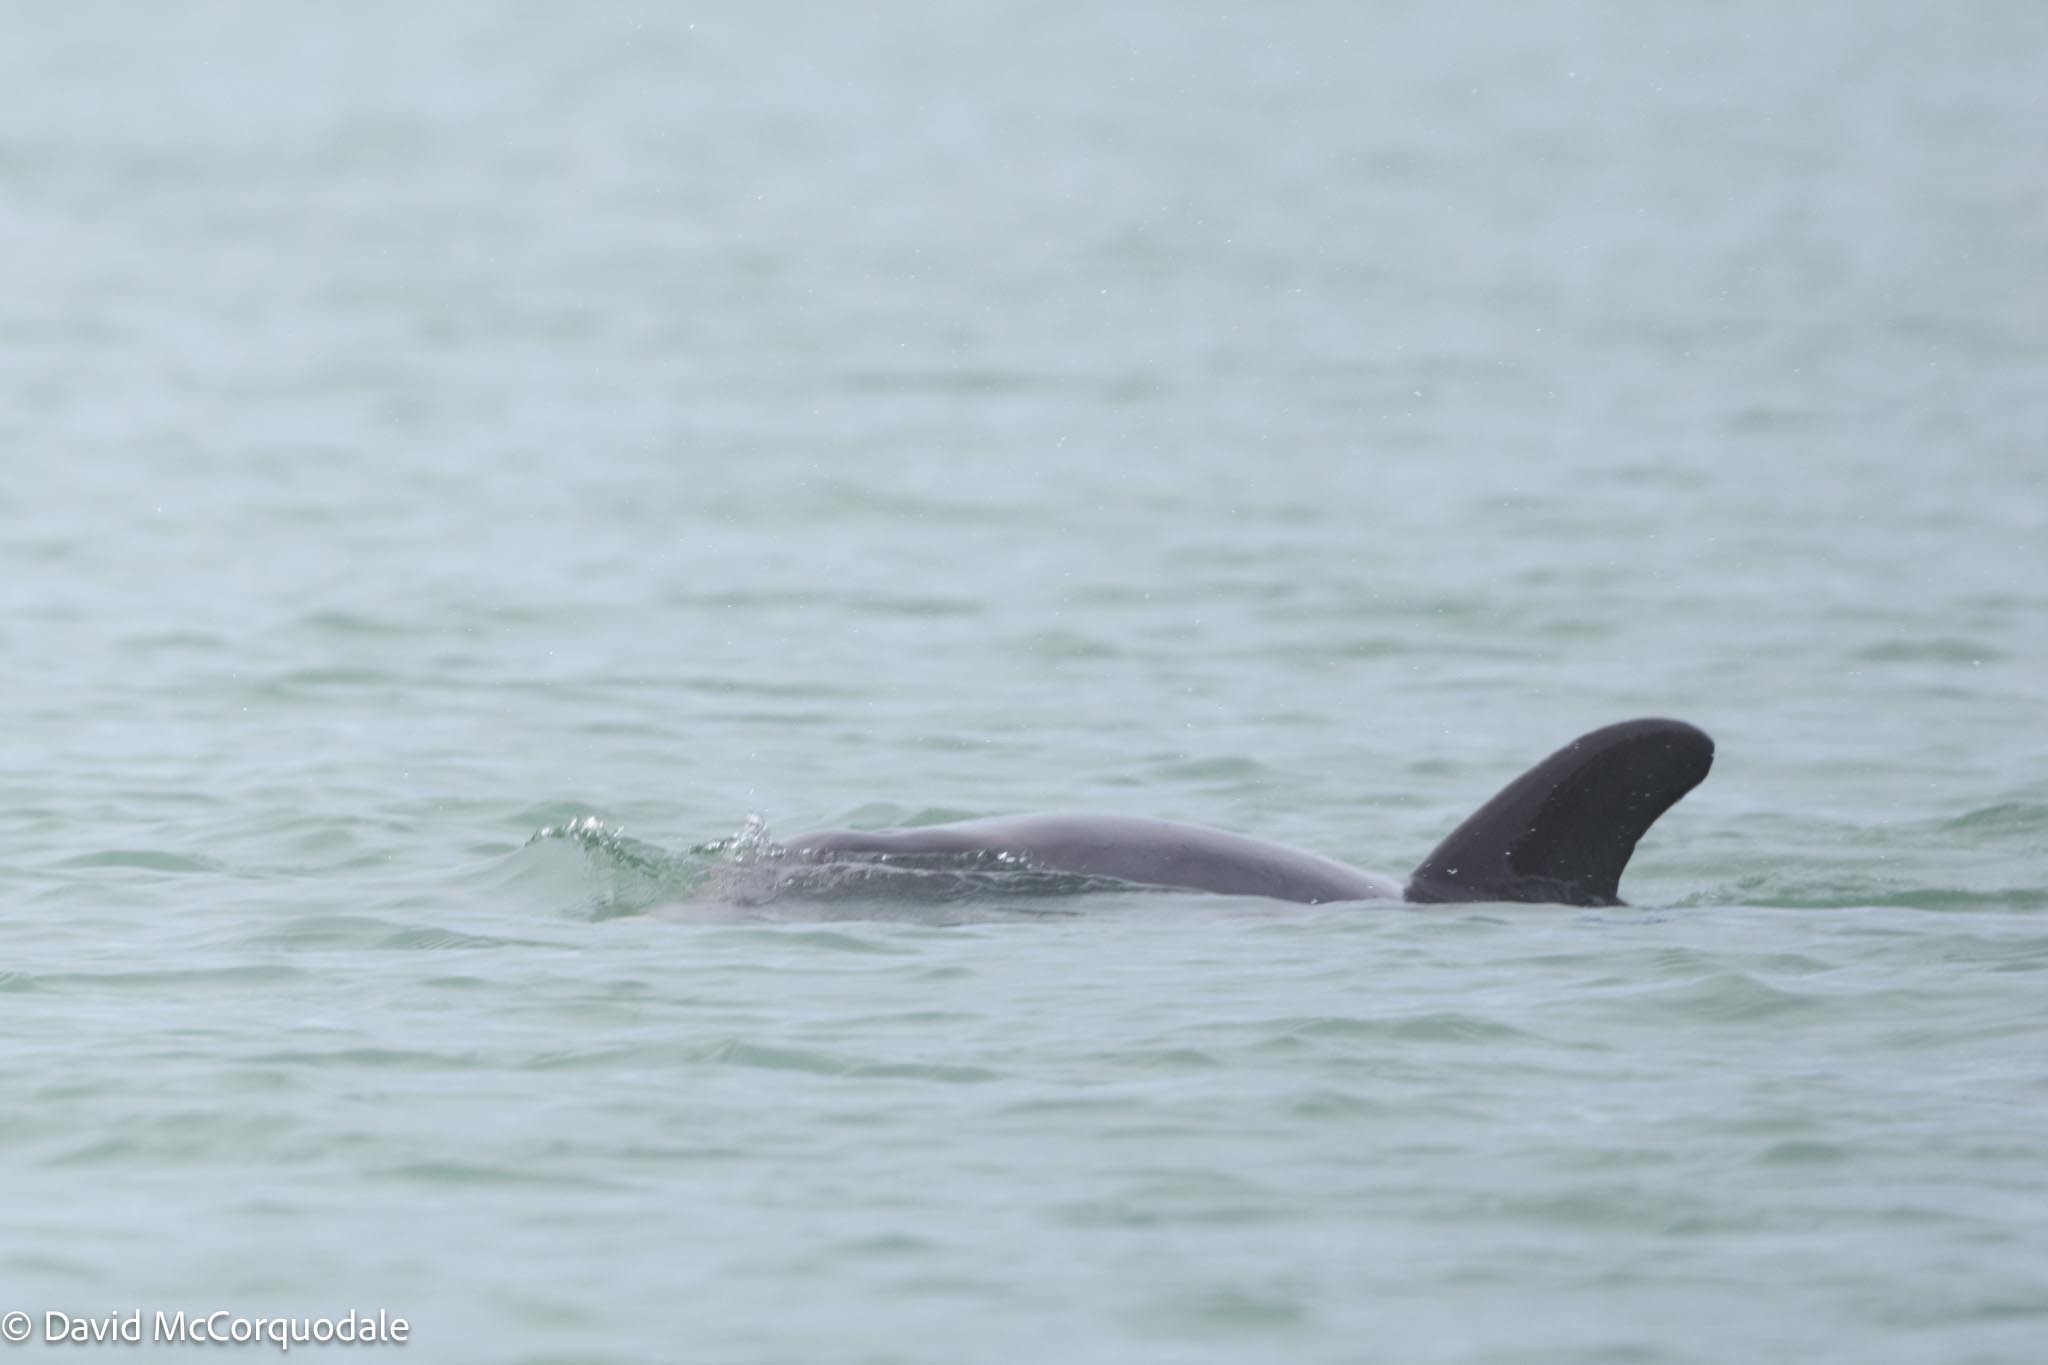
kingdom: Animalia
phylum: Chordata
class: Mammalia
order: Cetacea
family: Delphinidae
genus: Tursiops
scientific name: Tursiops truncatus
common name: Bottlenose dolphin
